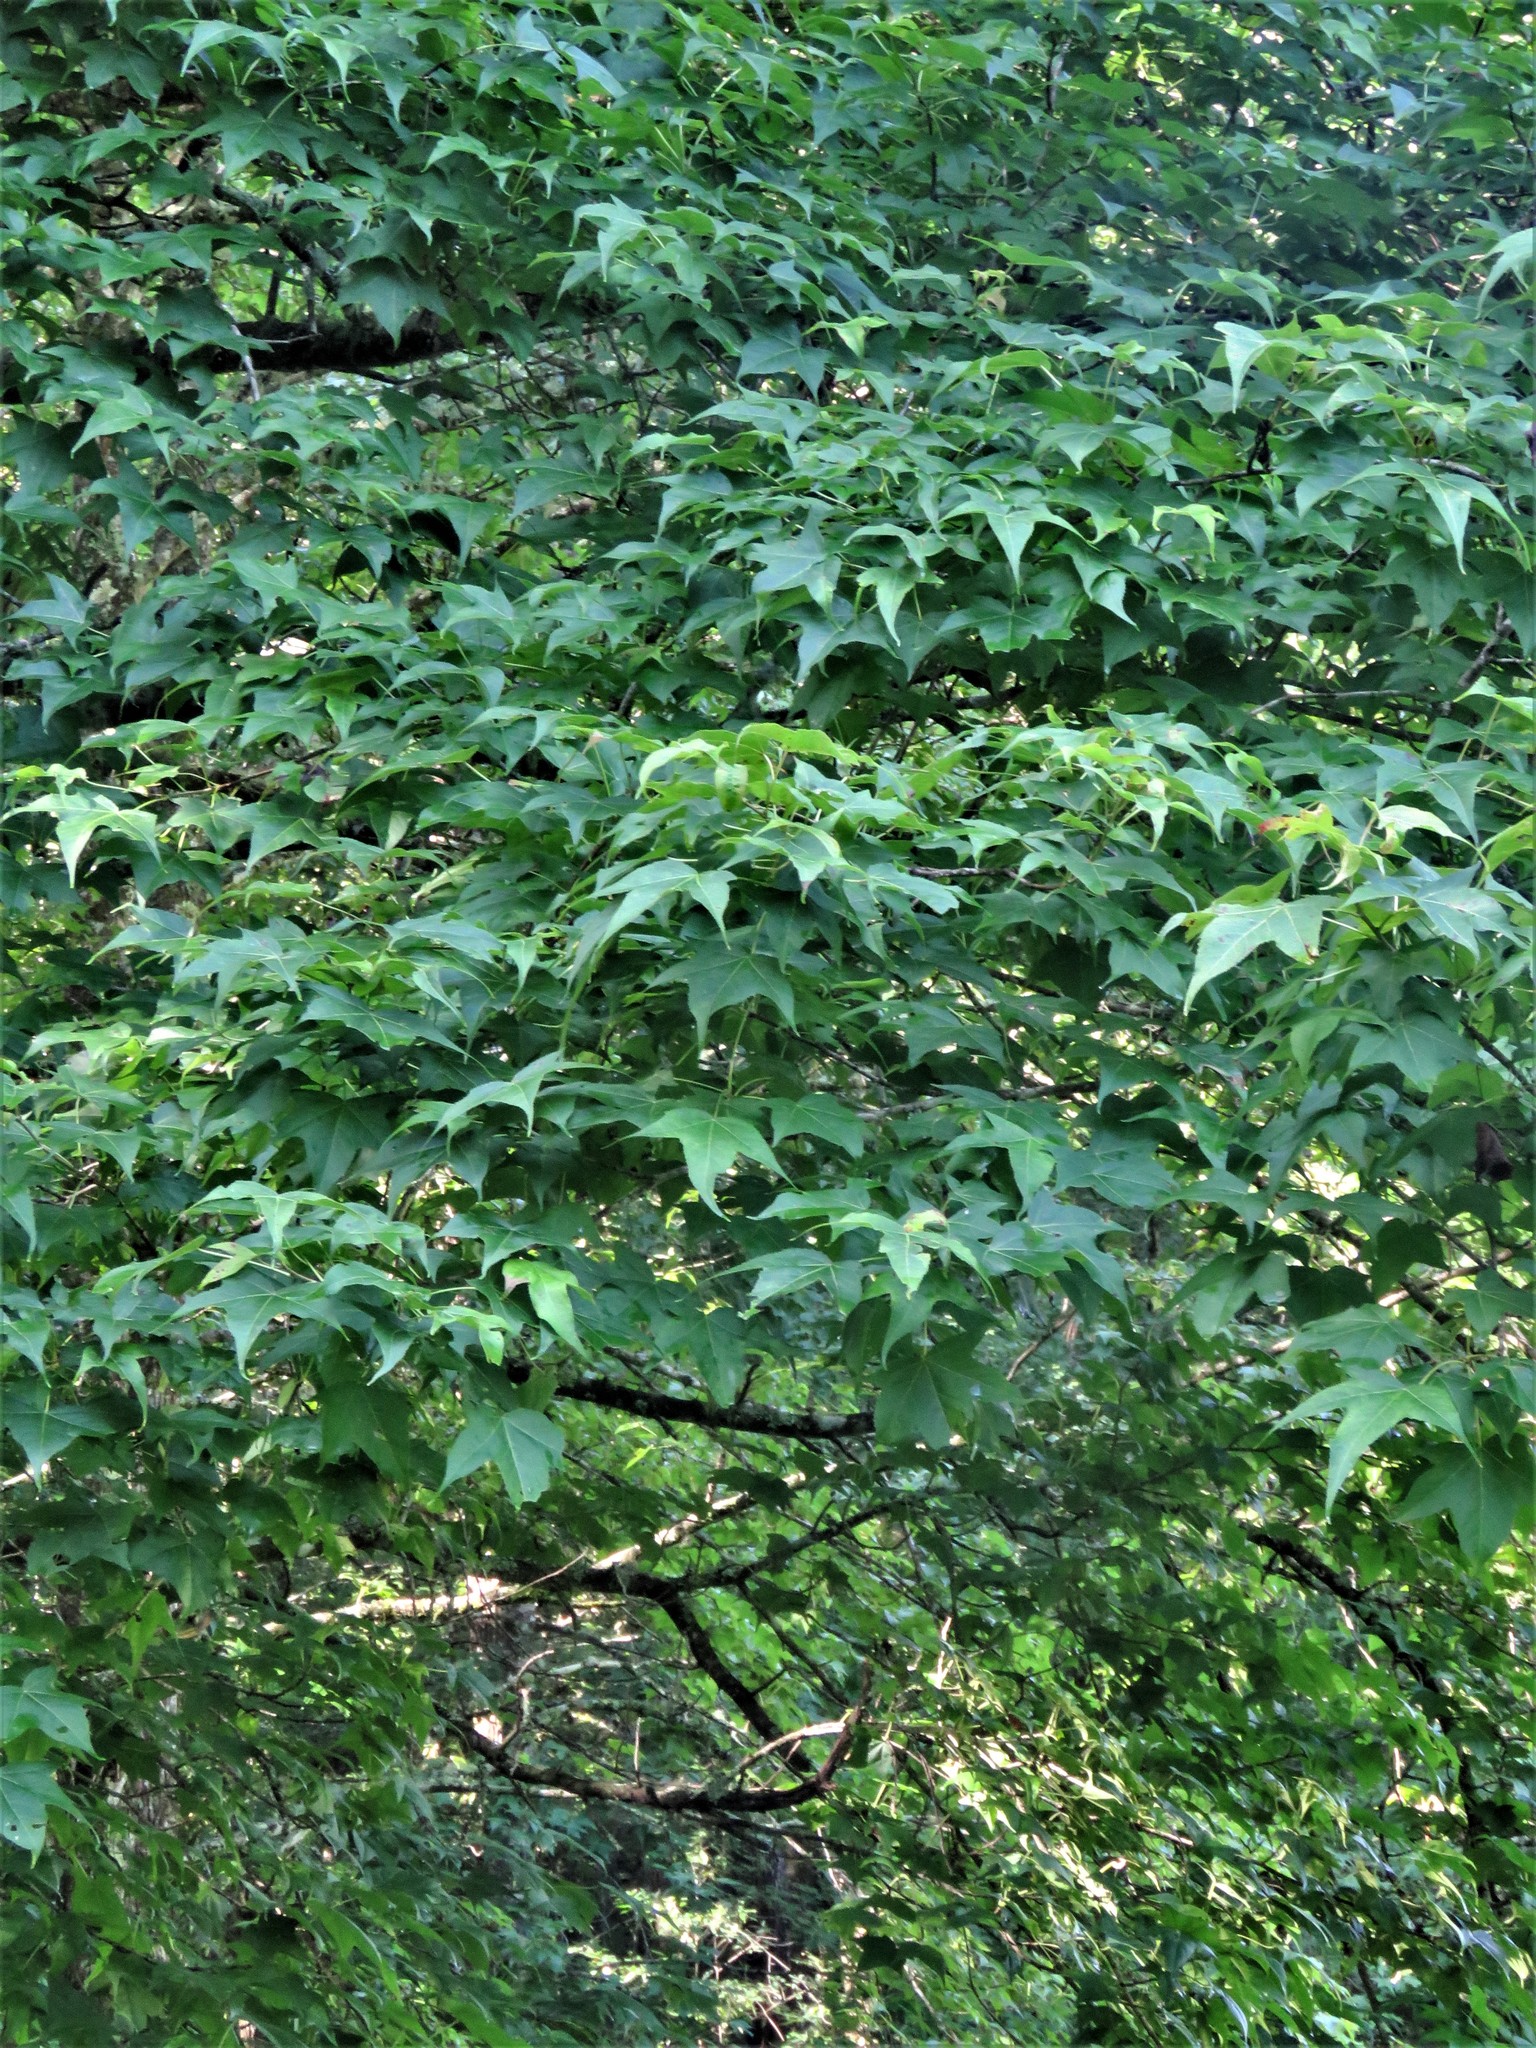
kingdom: Plantae
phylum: Tracheophyta
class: Magnoliopsida
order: Saxifragales
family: Altingiaceae
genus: Liquidambar
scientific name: Liquidambar styraciflua
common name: Sweet gum
